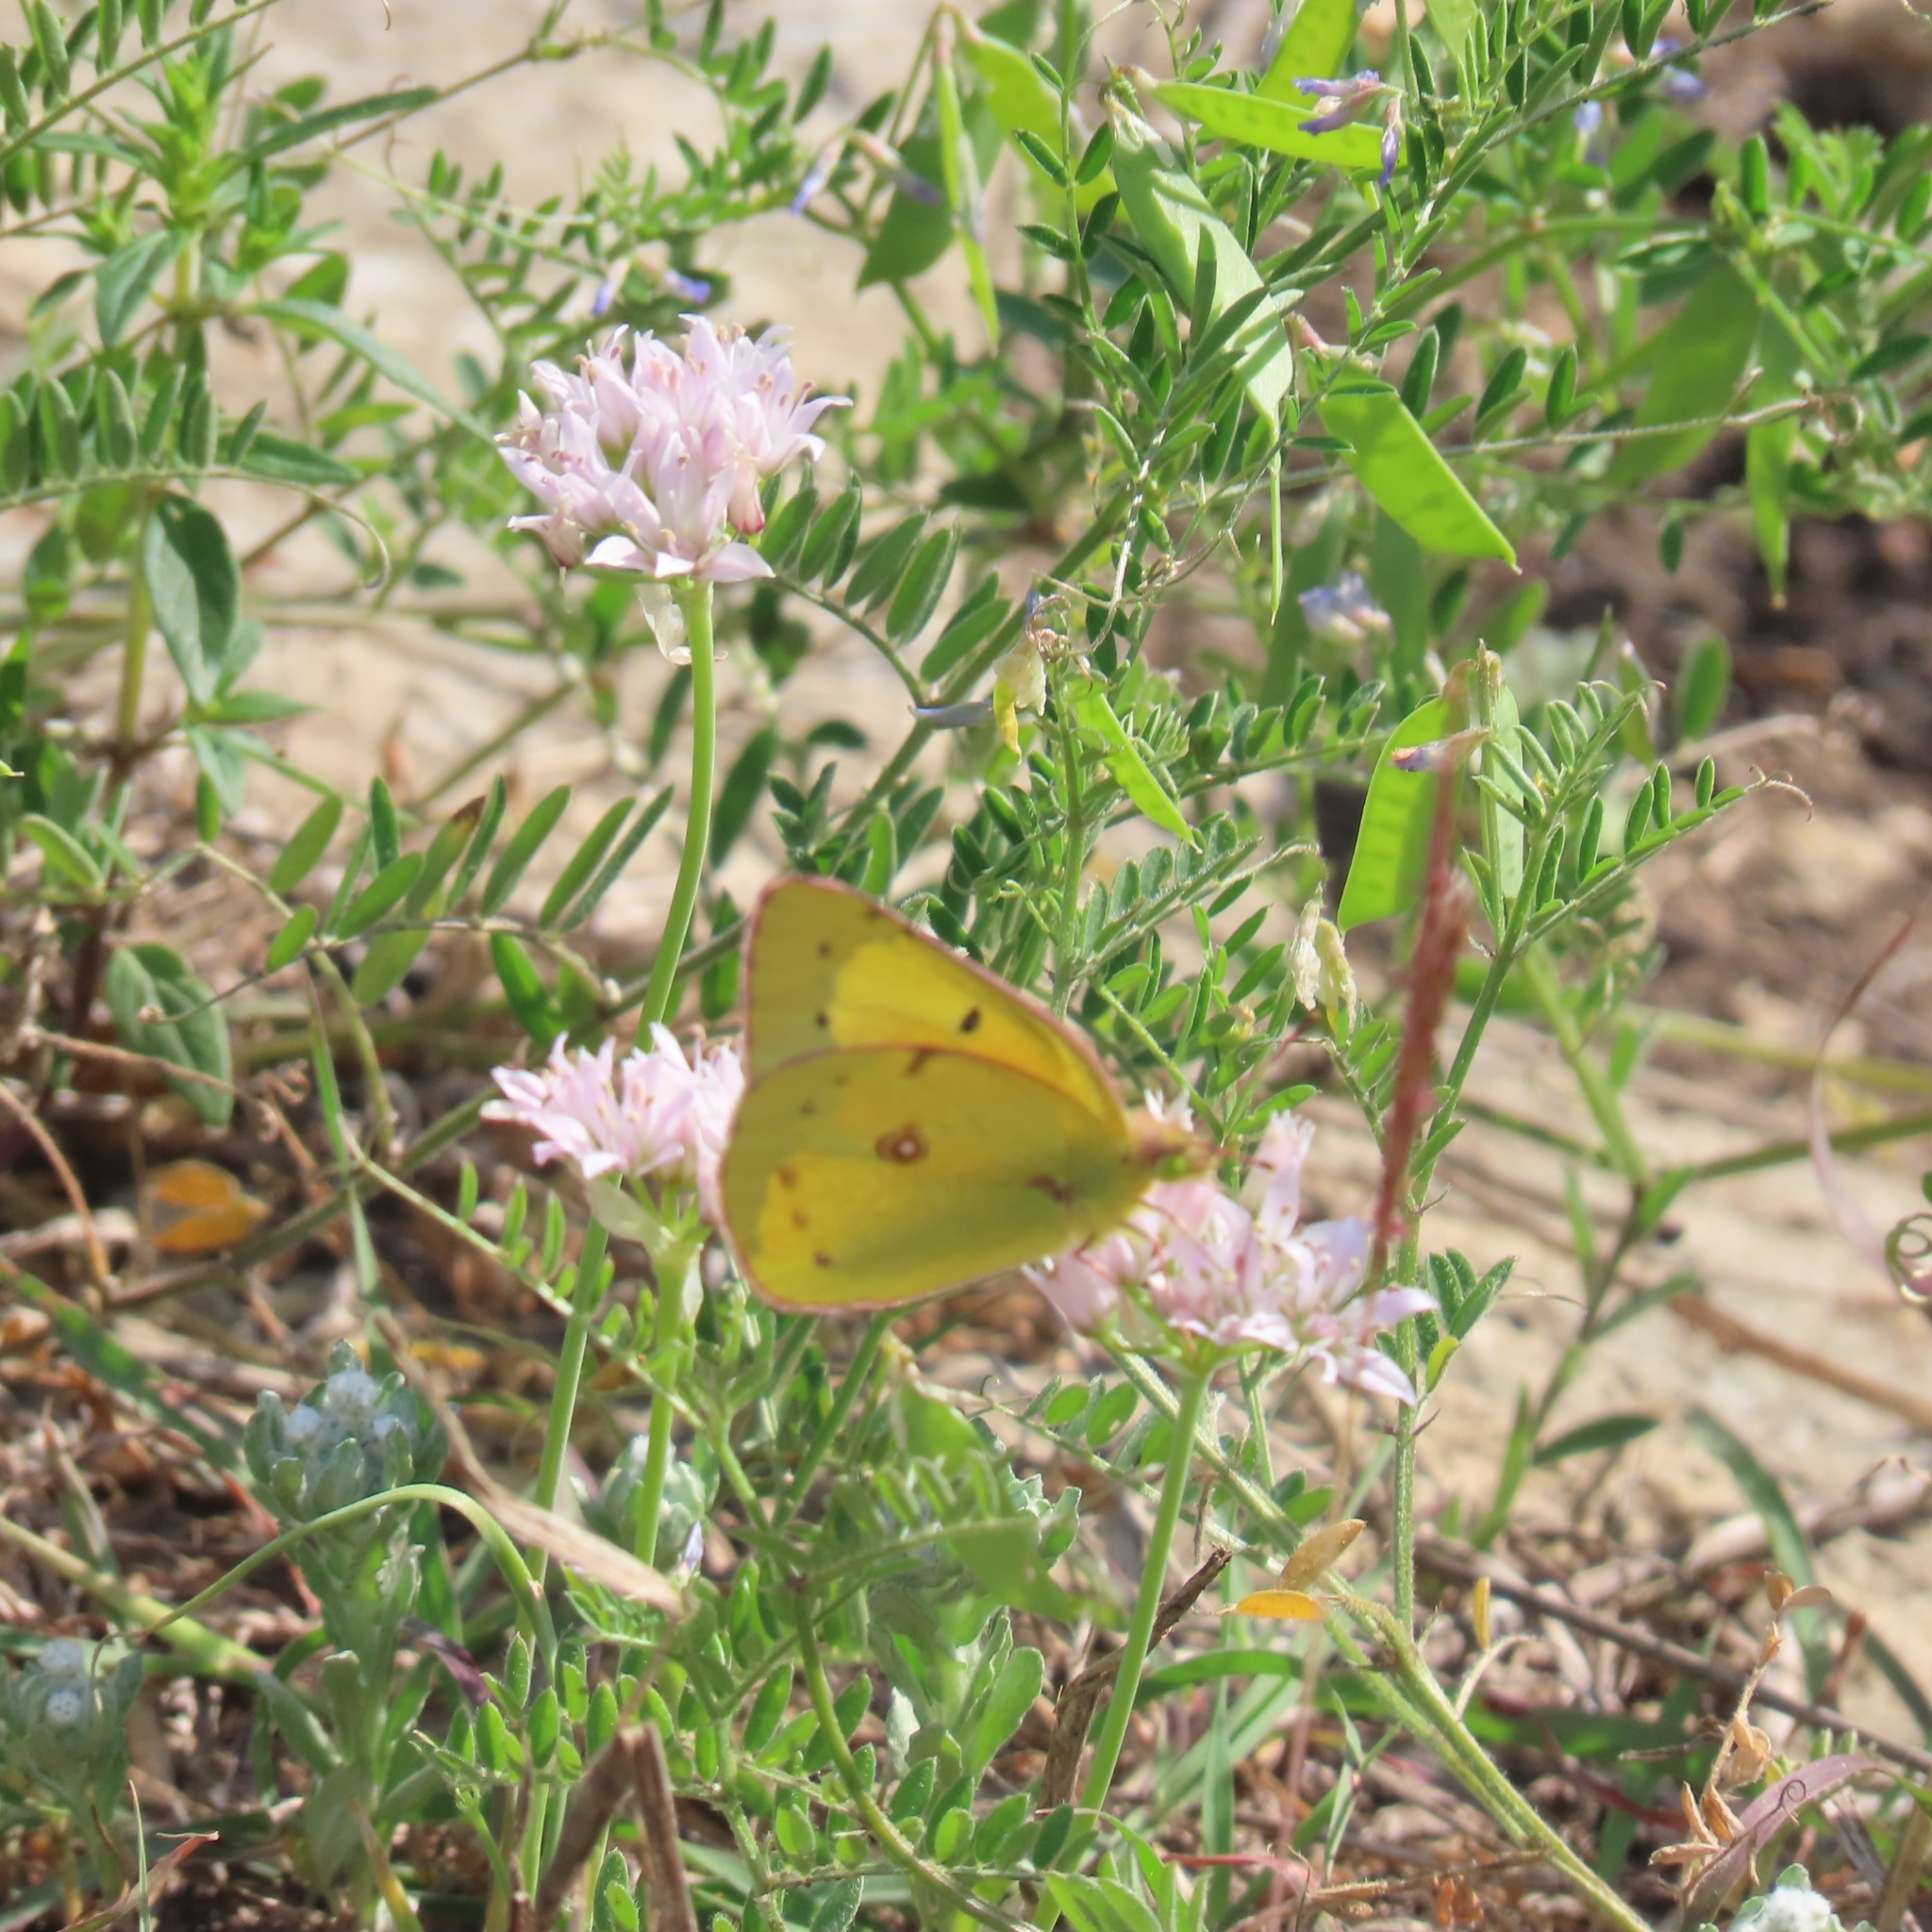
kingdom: Animalia
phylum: Arthropoda
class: Insecta
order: Lepidoptera
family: Pieridae
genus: Colias
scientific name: Colias eurytheme
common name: Alfalfa butterfly
